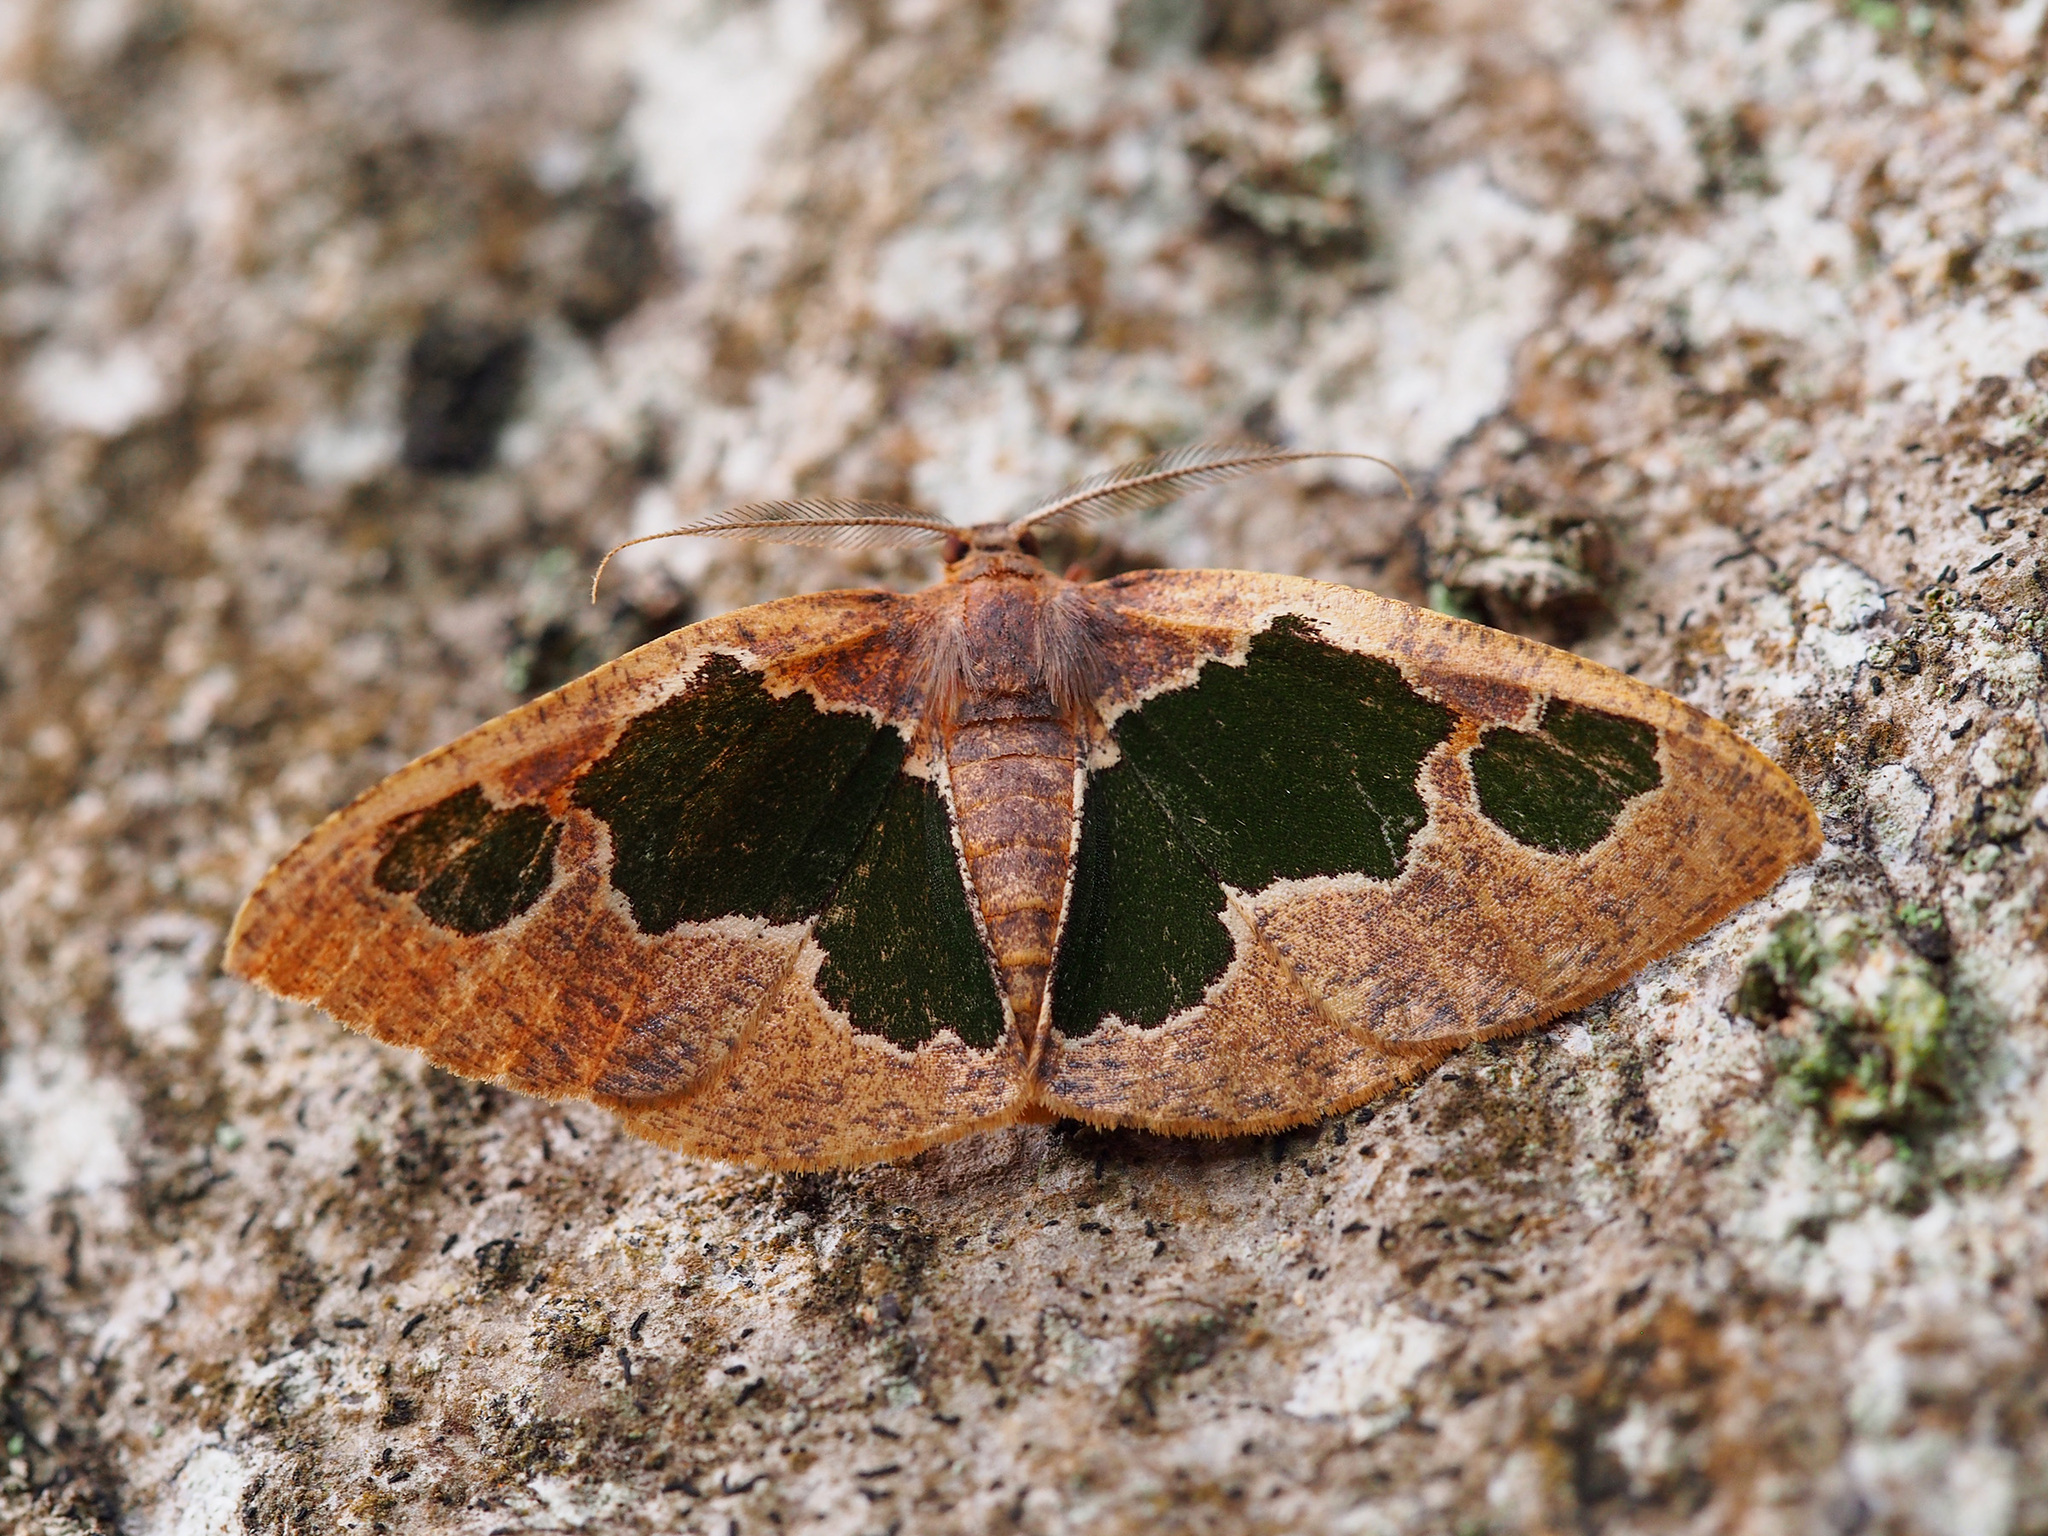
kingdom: Animalia
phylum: Arthropoda
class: Insecta
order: Lepidoptera
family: Geometridae
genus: Celenna
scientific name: Celenna festivaria
